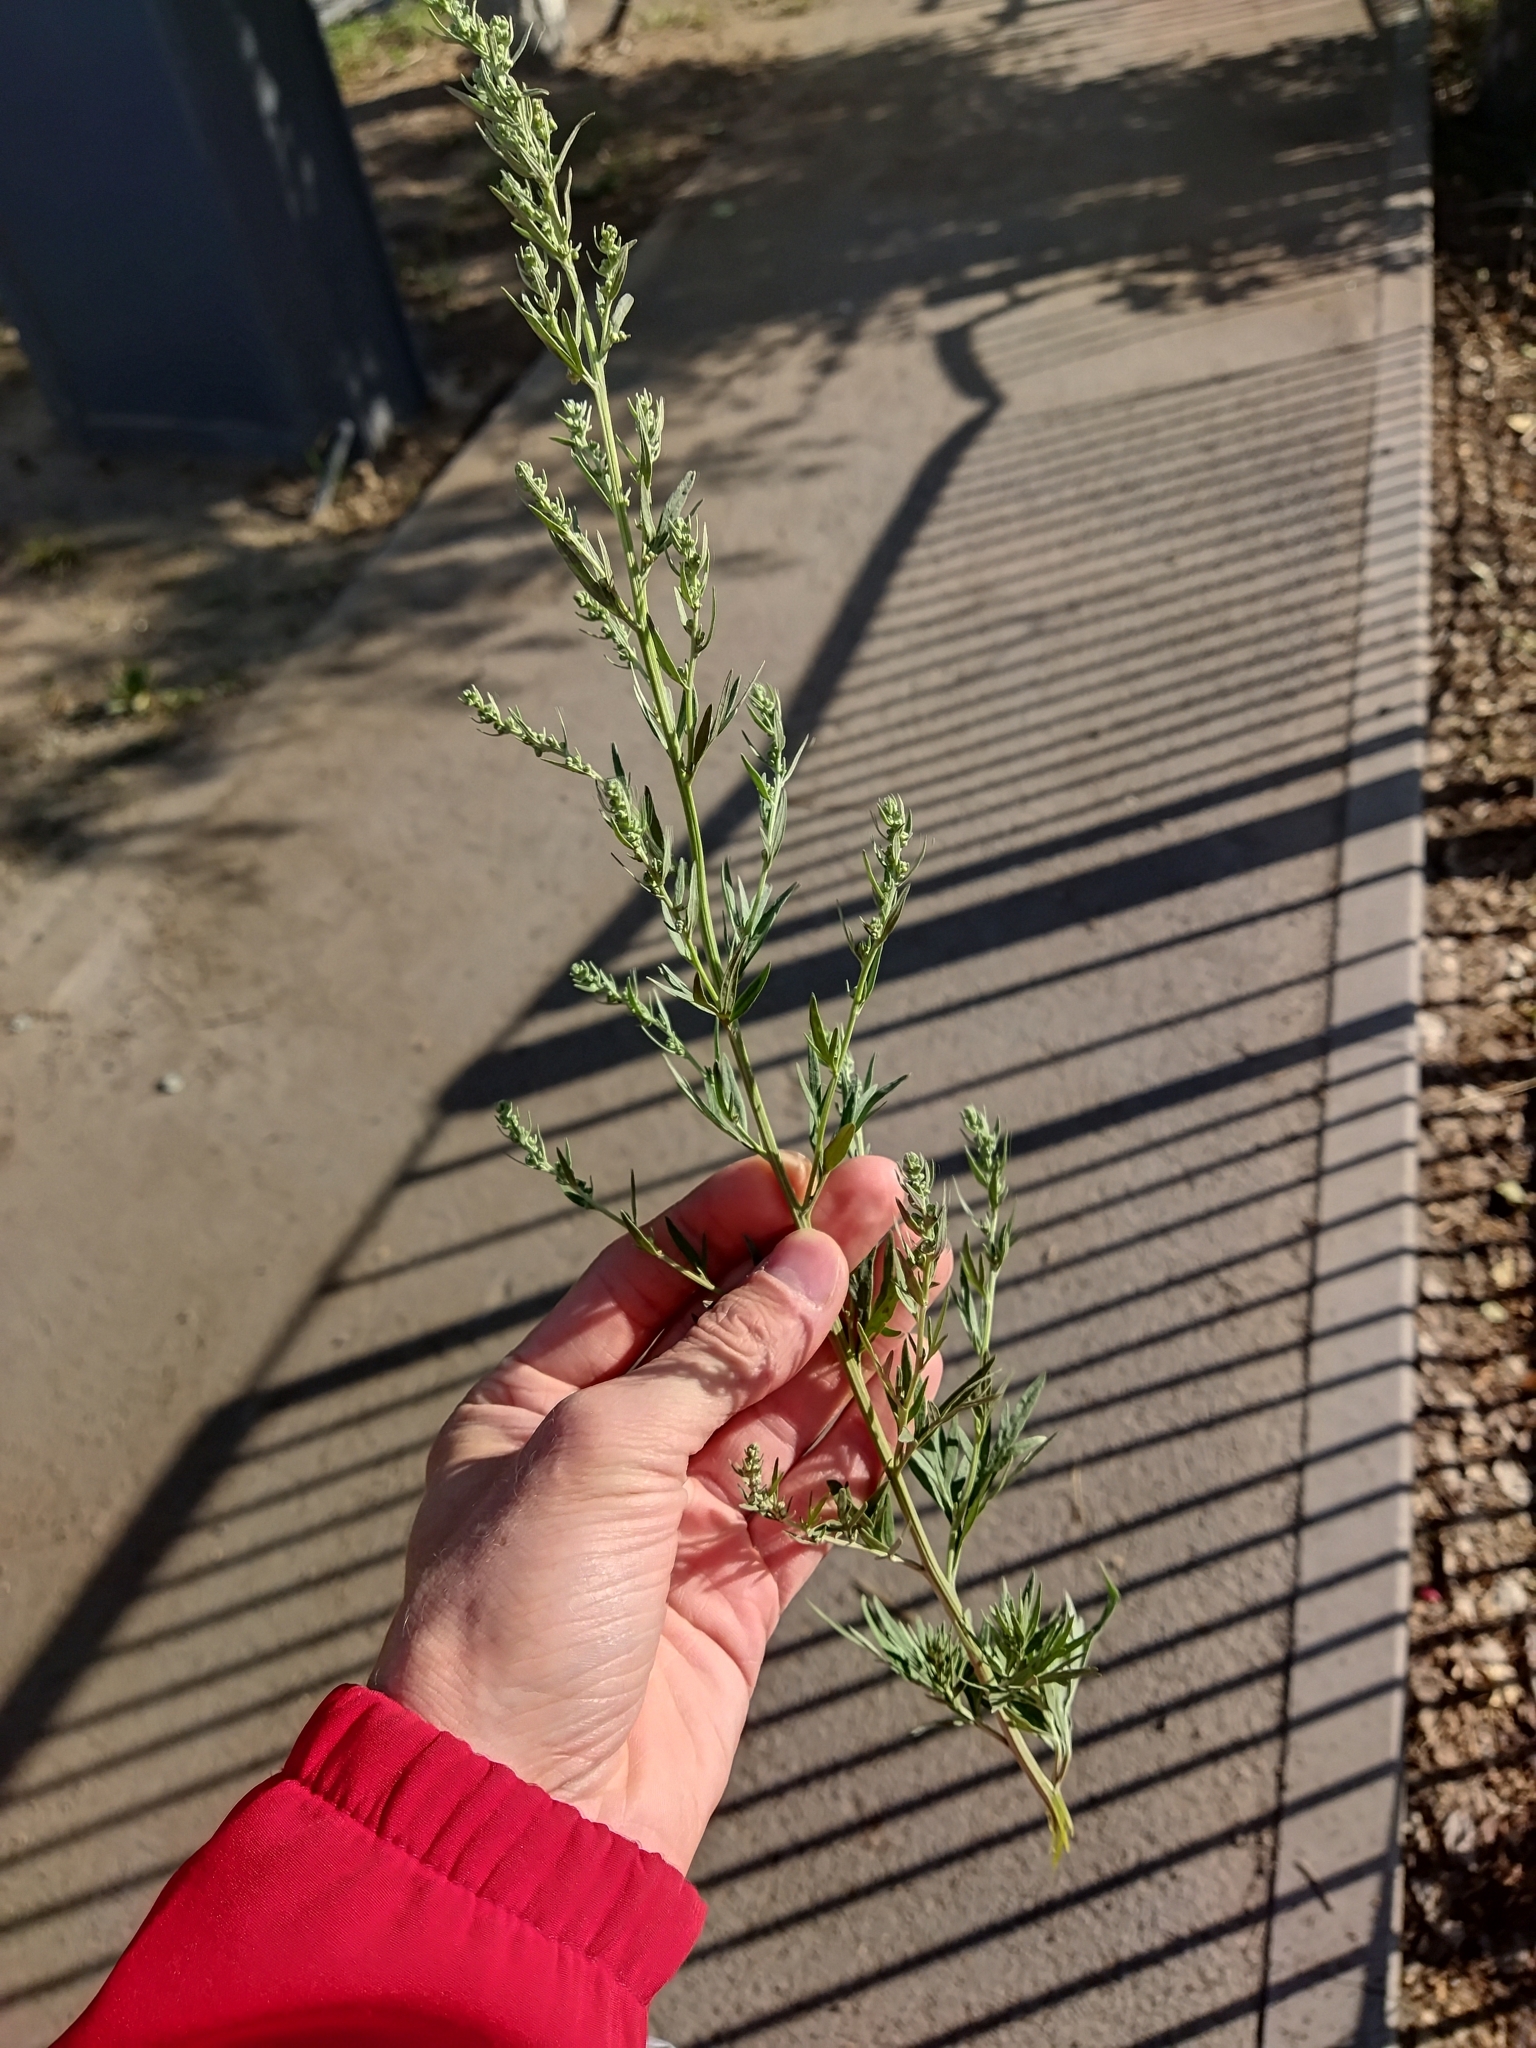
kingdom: Plantae
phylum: Tracheophyta
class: Magnoliopsida
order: Asterales
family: Asteraceae
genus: Artemisia
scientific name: Artemisia vulgaris
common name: Mugwort
